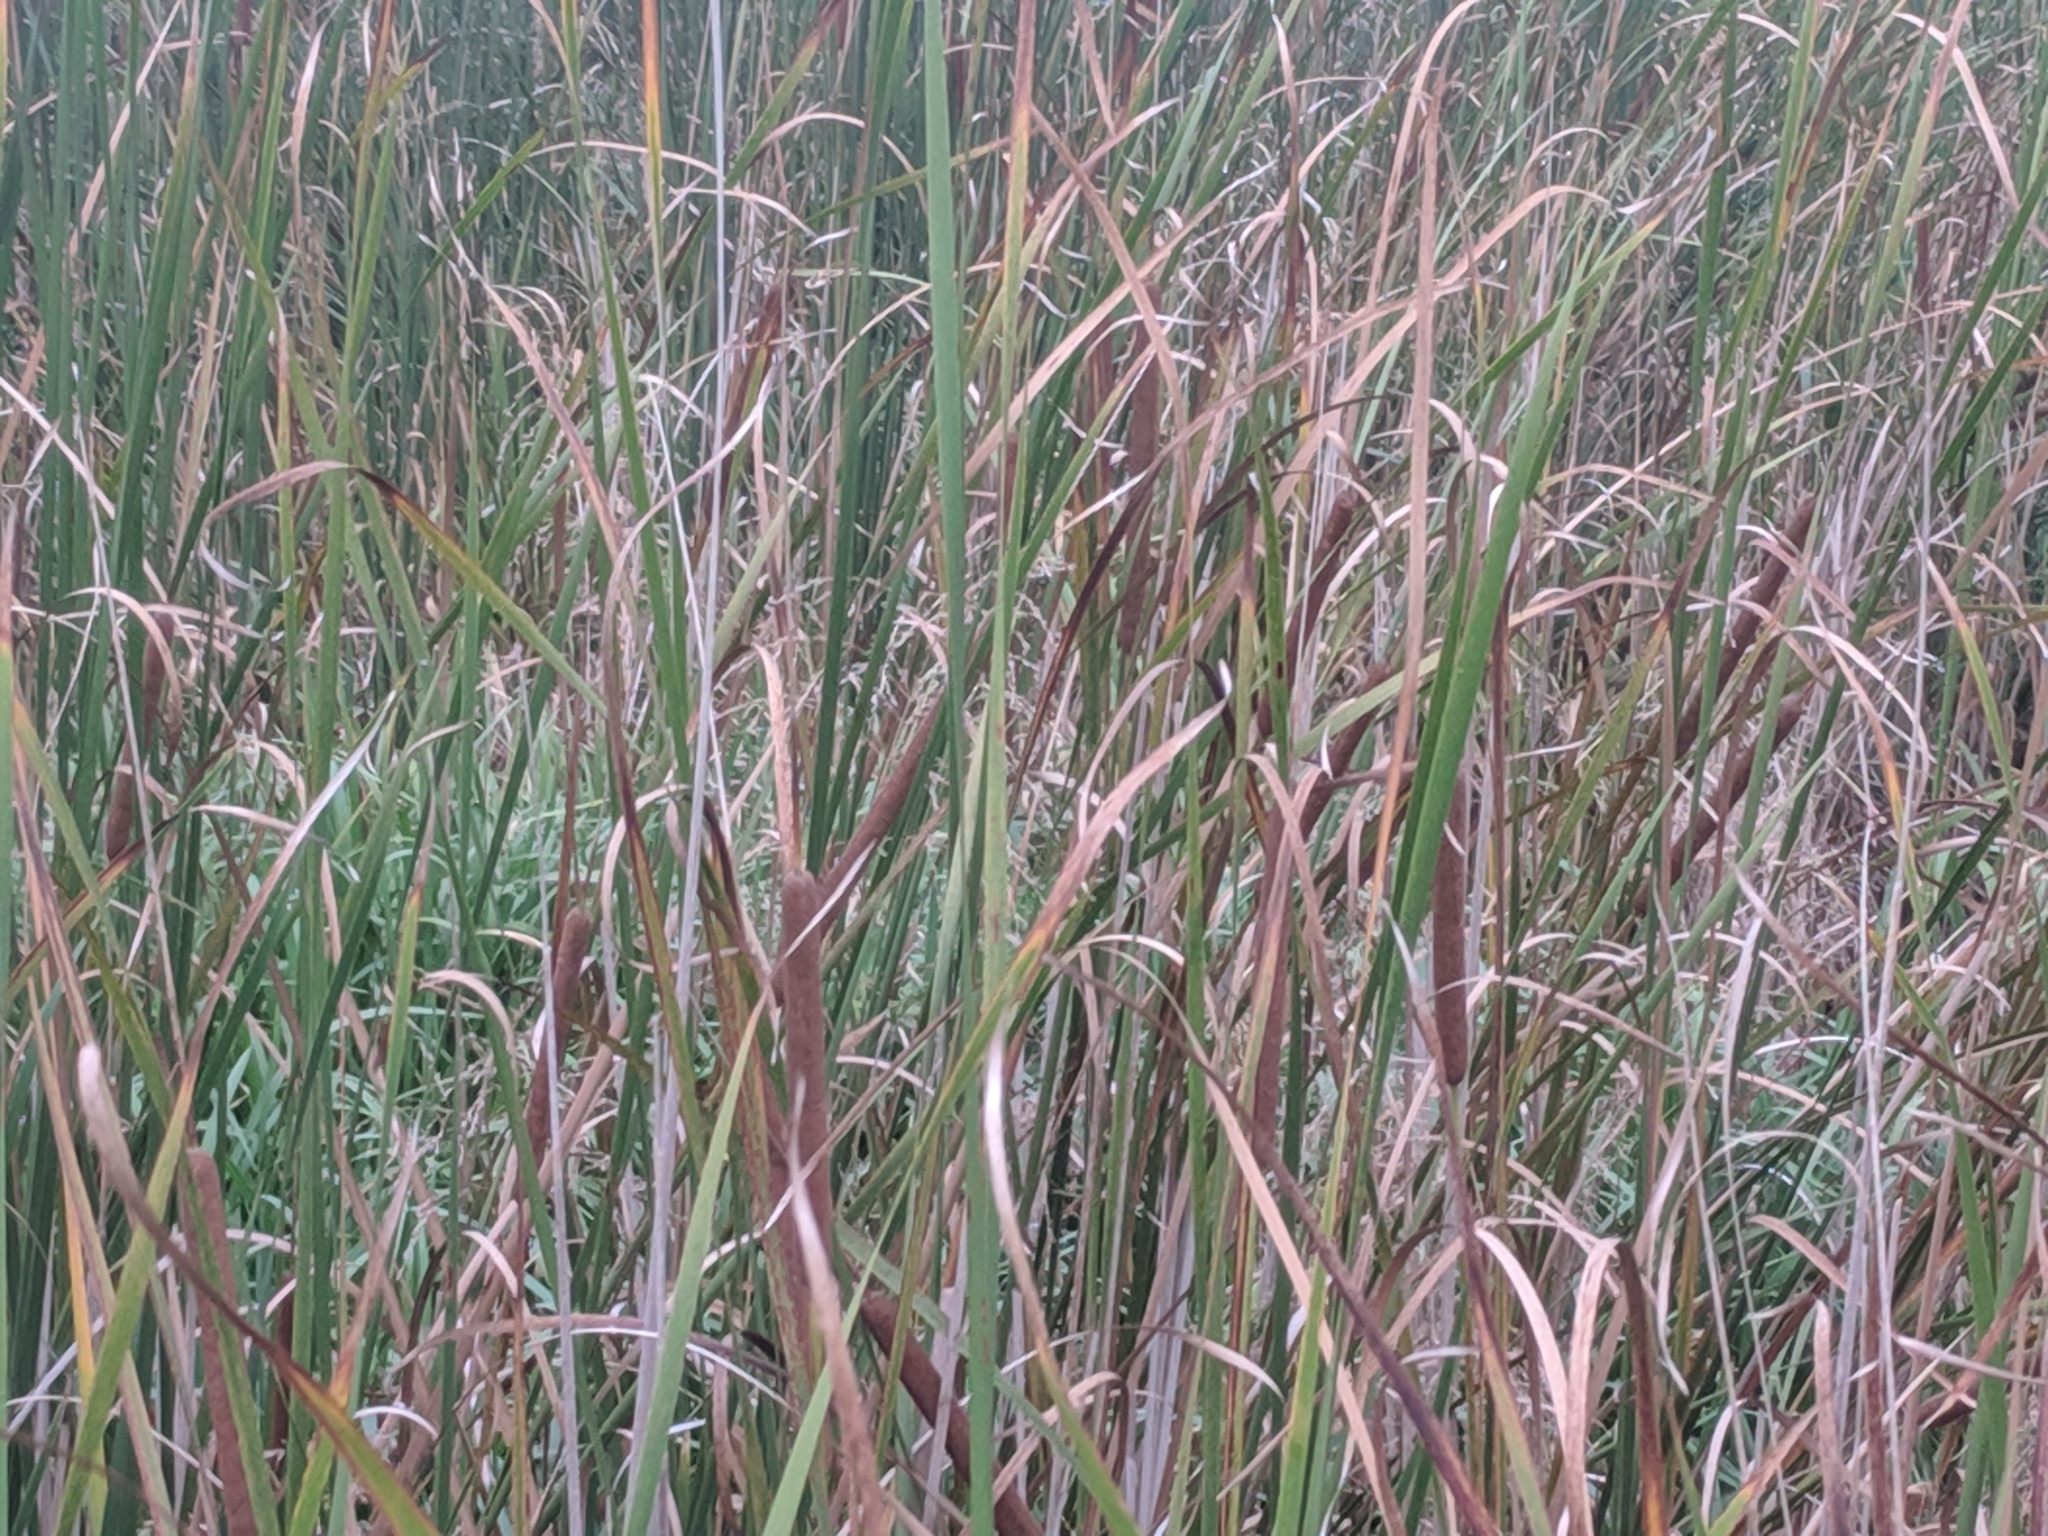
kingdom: Plantae
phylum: Tracheophyta
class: Liliopsida
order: Poales
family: Typhaceae
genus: Typha
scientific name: Typha angustifolia
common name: Lesser bulrush
